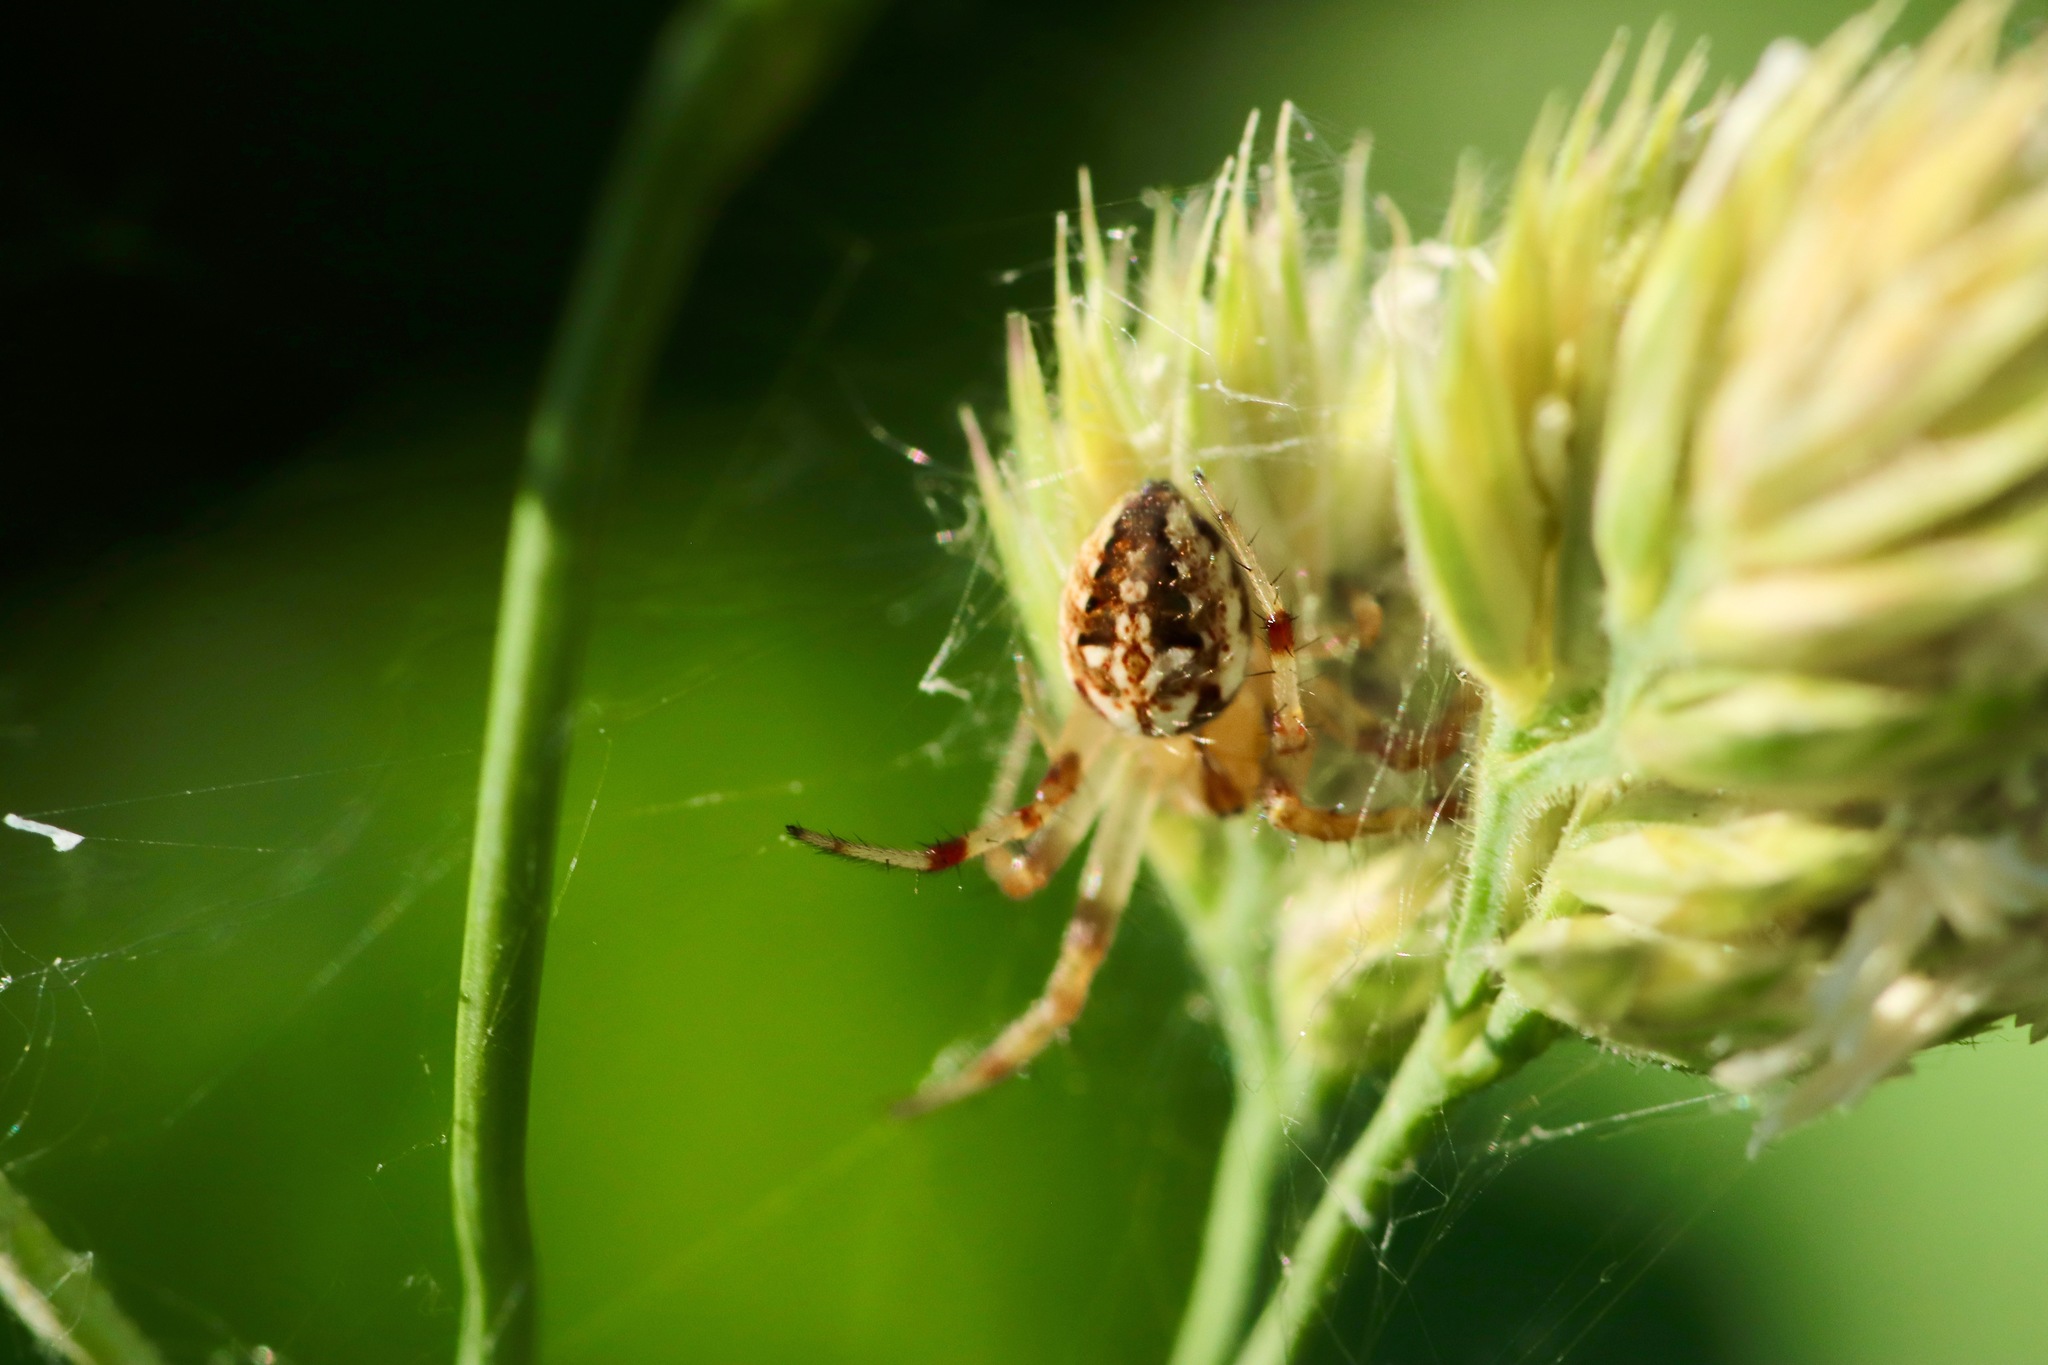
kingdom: Animalia
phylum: Arthropoda
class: Arachnida
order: Araneae
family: Araneidae
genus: Neoscona
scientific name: Neoscona arabesca
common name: Orb weavers
